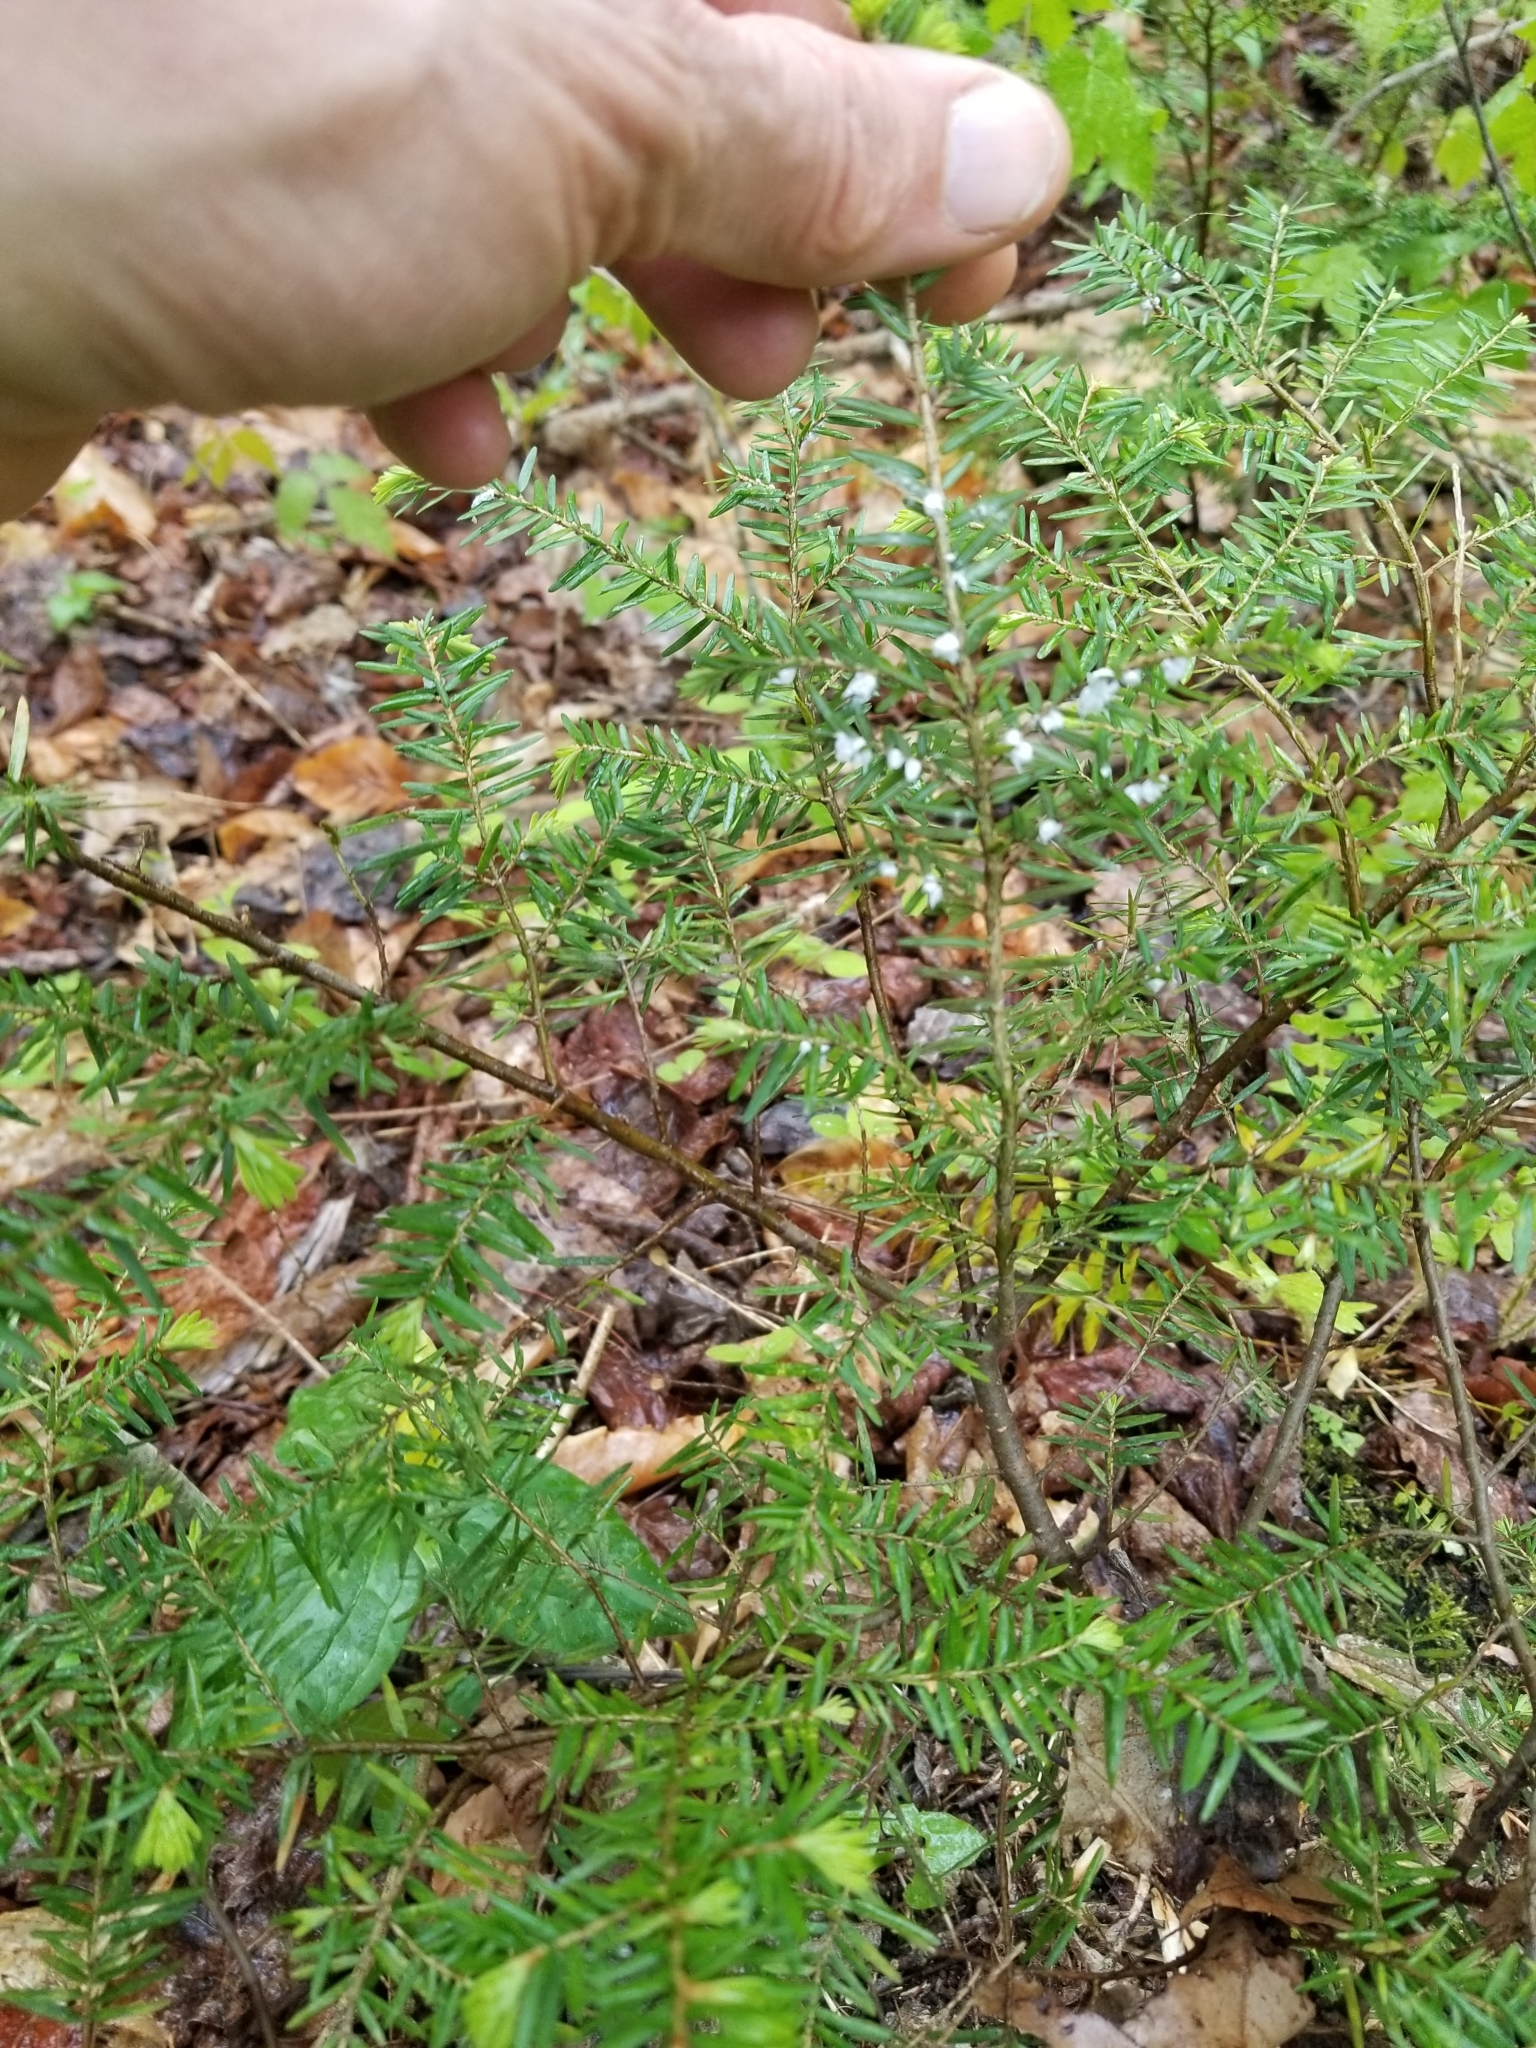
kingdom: Plantae
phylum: Tracheophyta
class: Pinopsida
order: Pinales
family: Pinaceae
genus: Tsuga
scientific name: Tsuga canadensis
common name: Eastern hemlock
